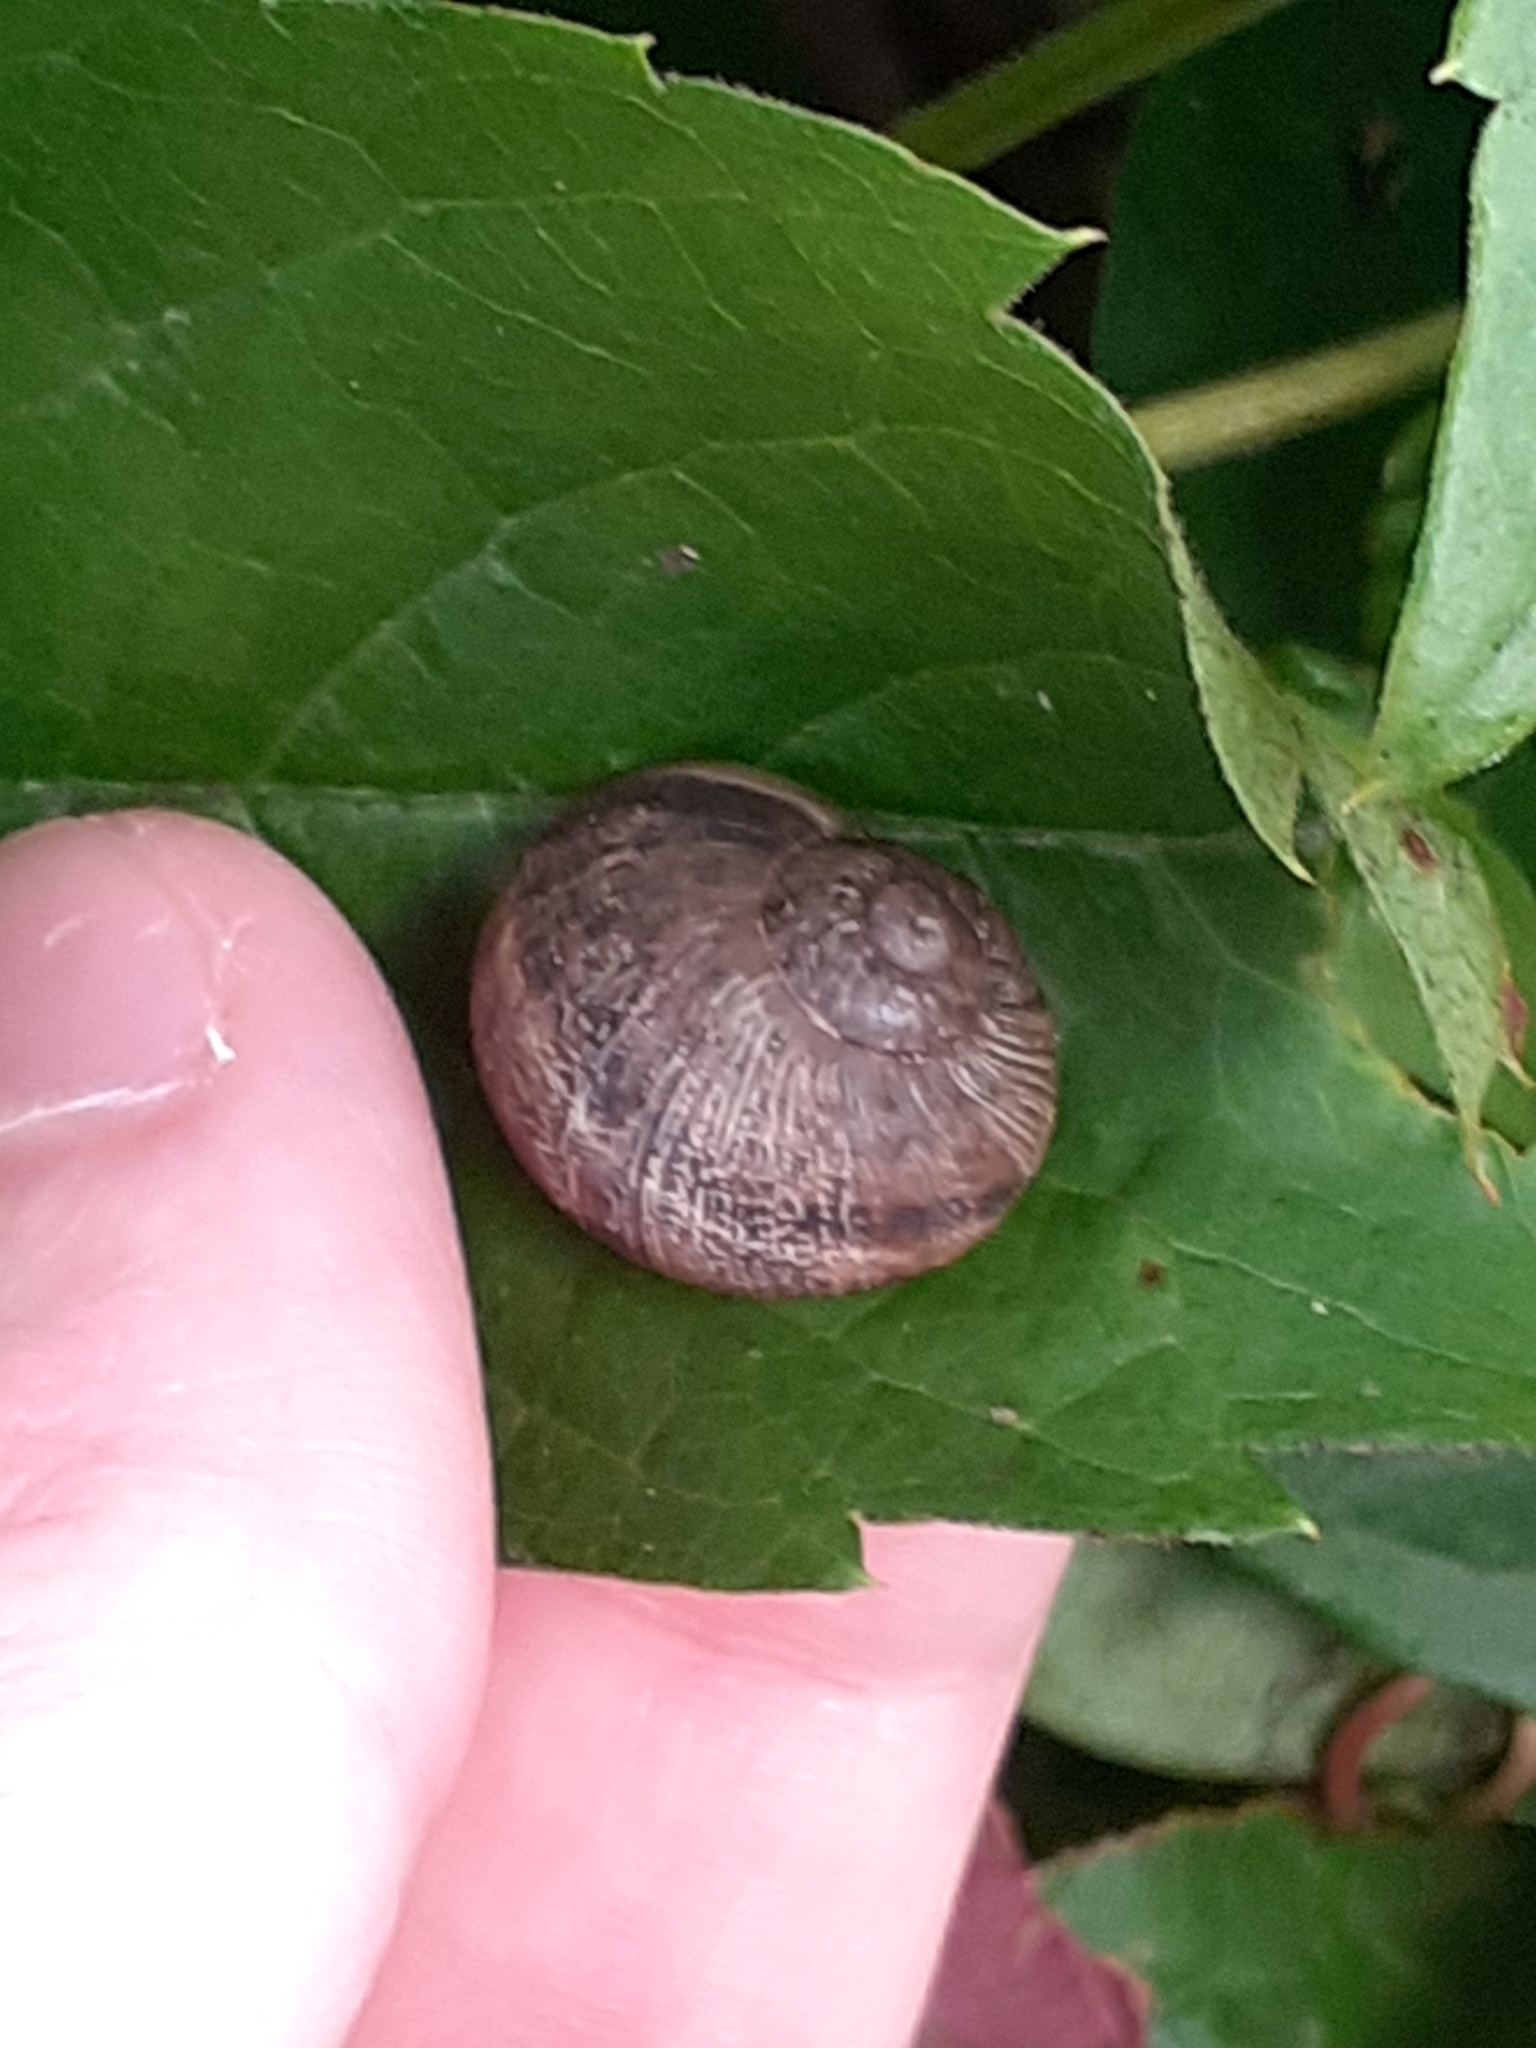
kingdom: Animalia
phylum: Mollusca
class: Gastropoda
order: Stylommatophora
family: Helicidae
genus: Cornu
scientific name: Cornu aspersum
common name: Brown garden snail
